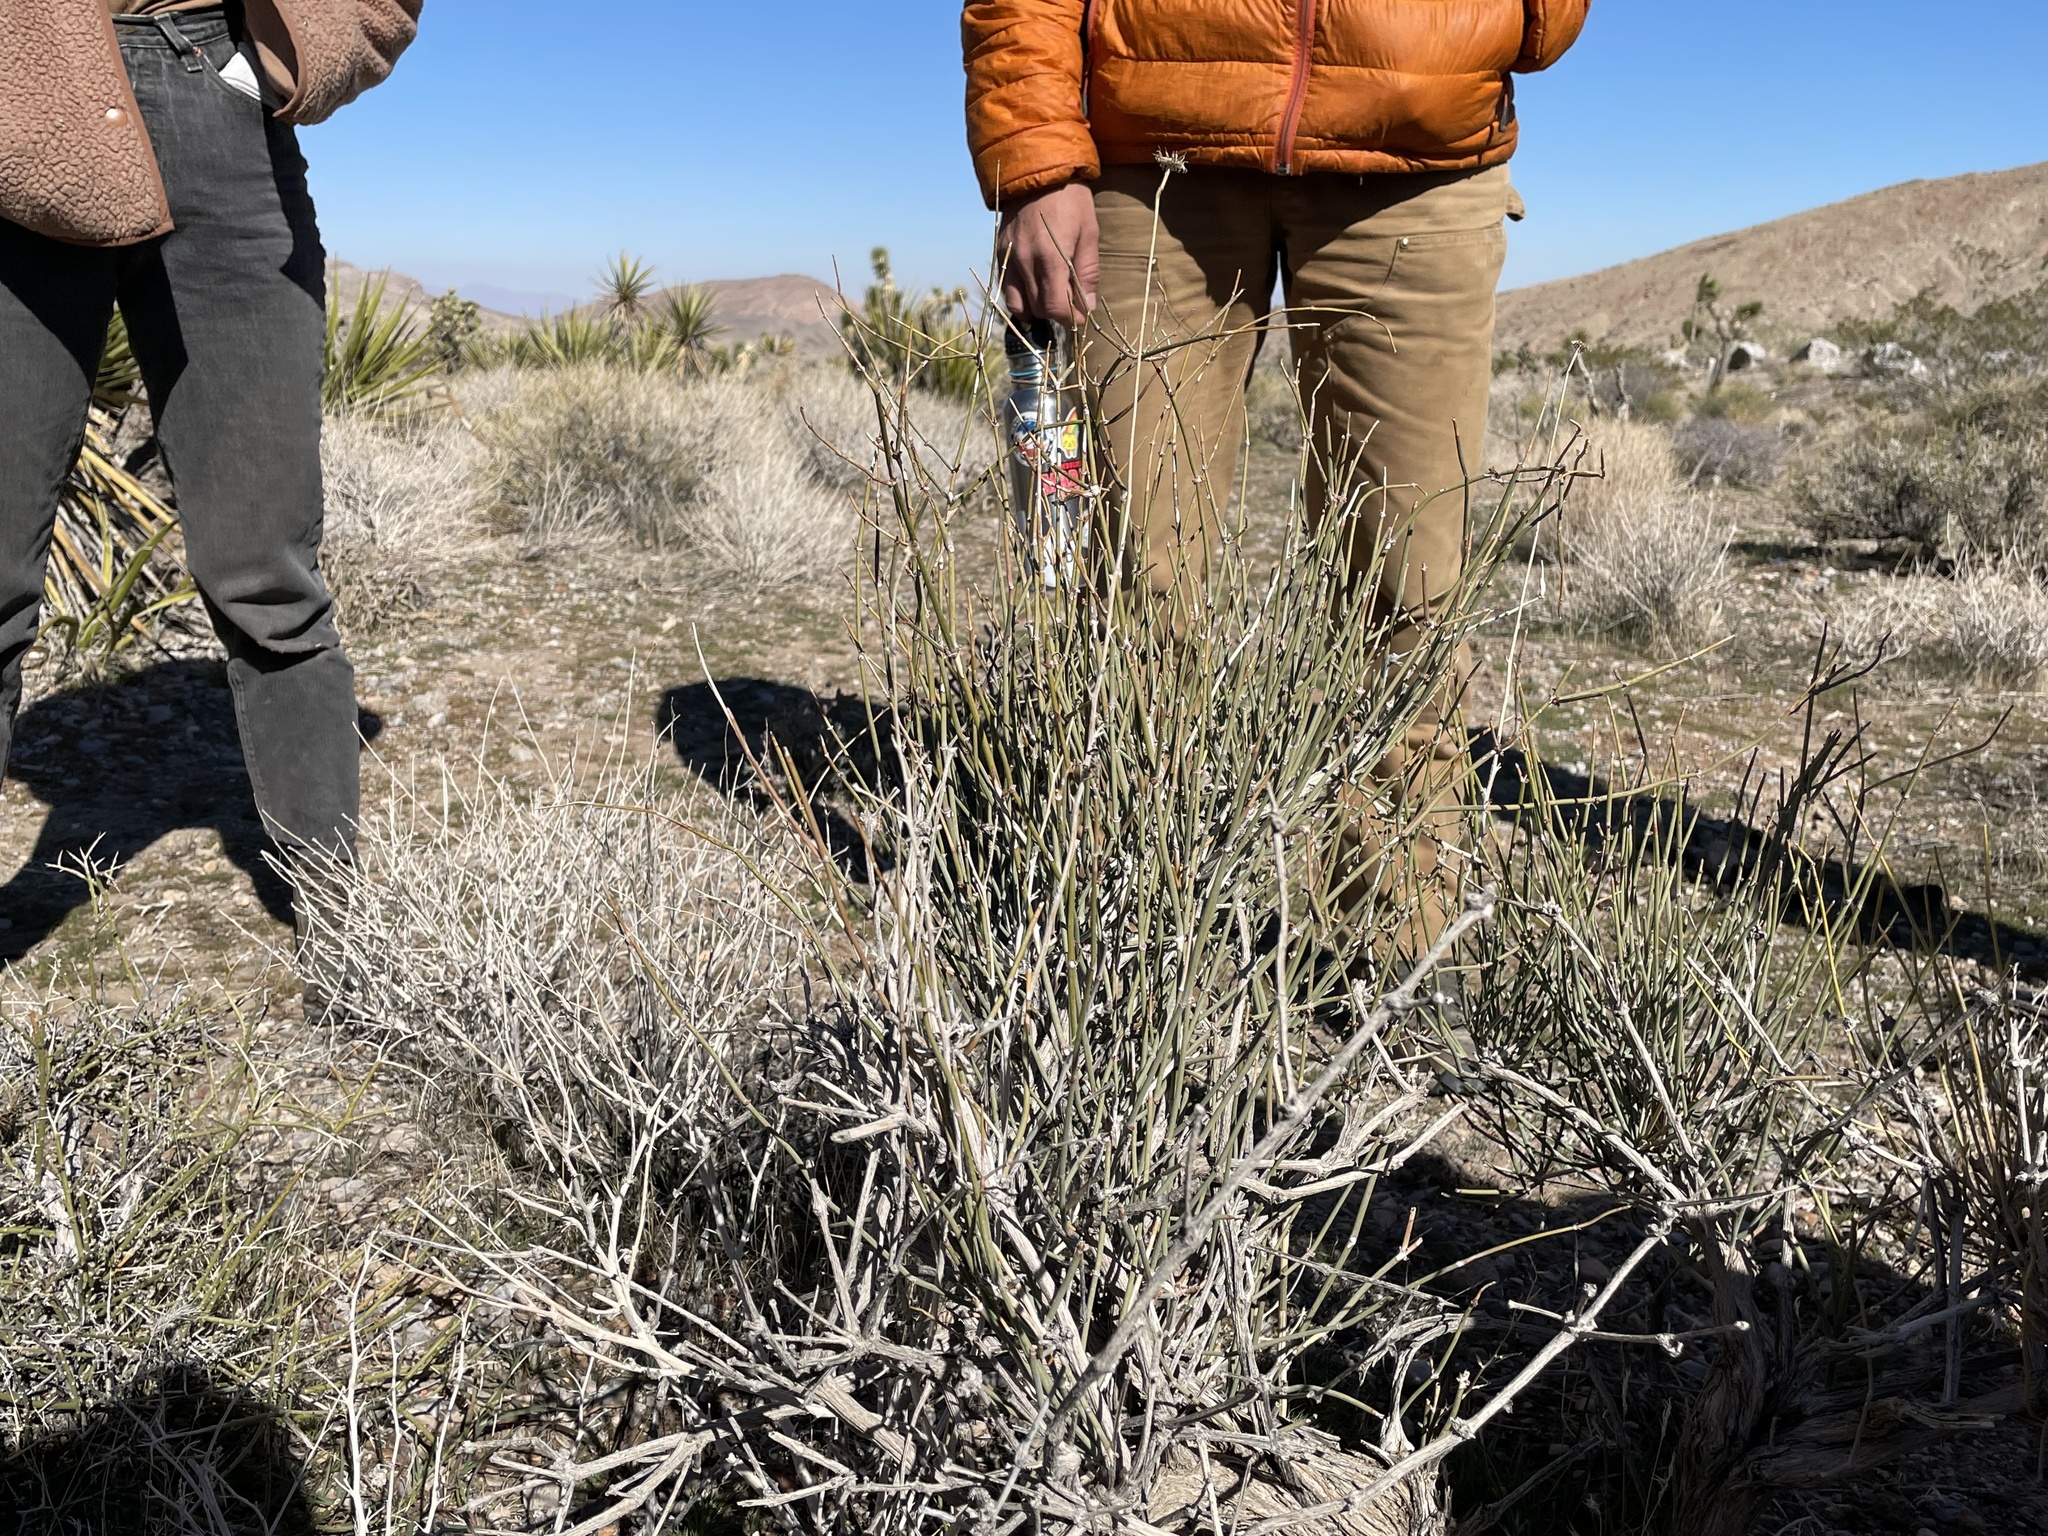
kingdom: Plantae
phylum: Tracheophyta
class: Gnetopsida
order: Ephedrales
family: Ephedraceae
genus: Ephedra
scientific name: Ephedra nevadensis
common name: Gray ephedra
